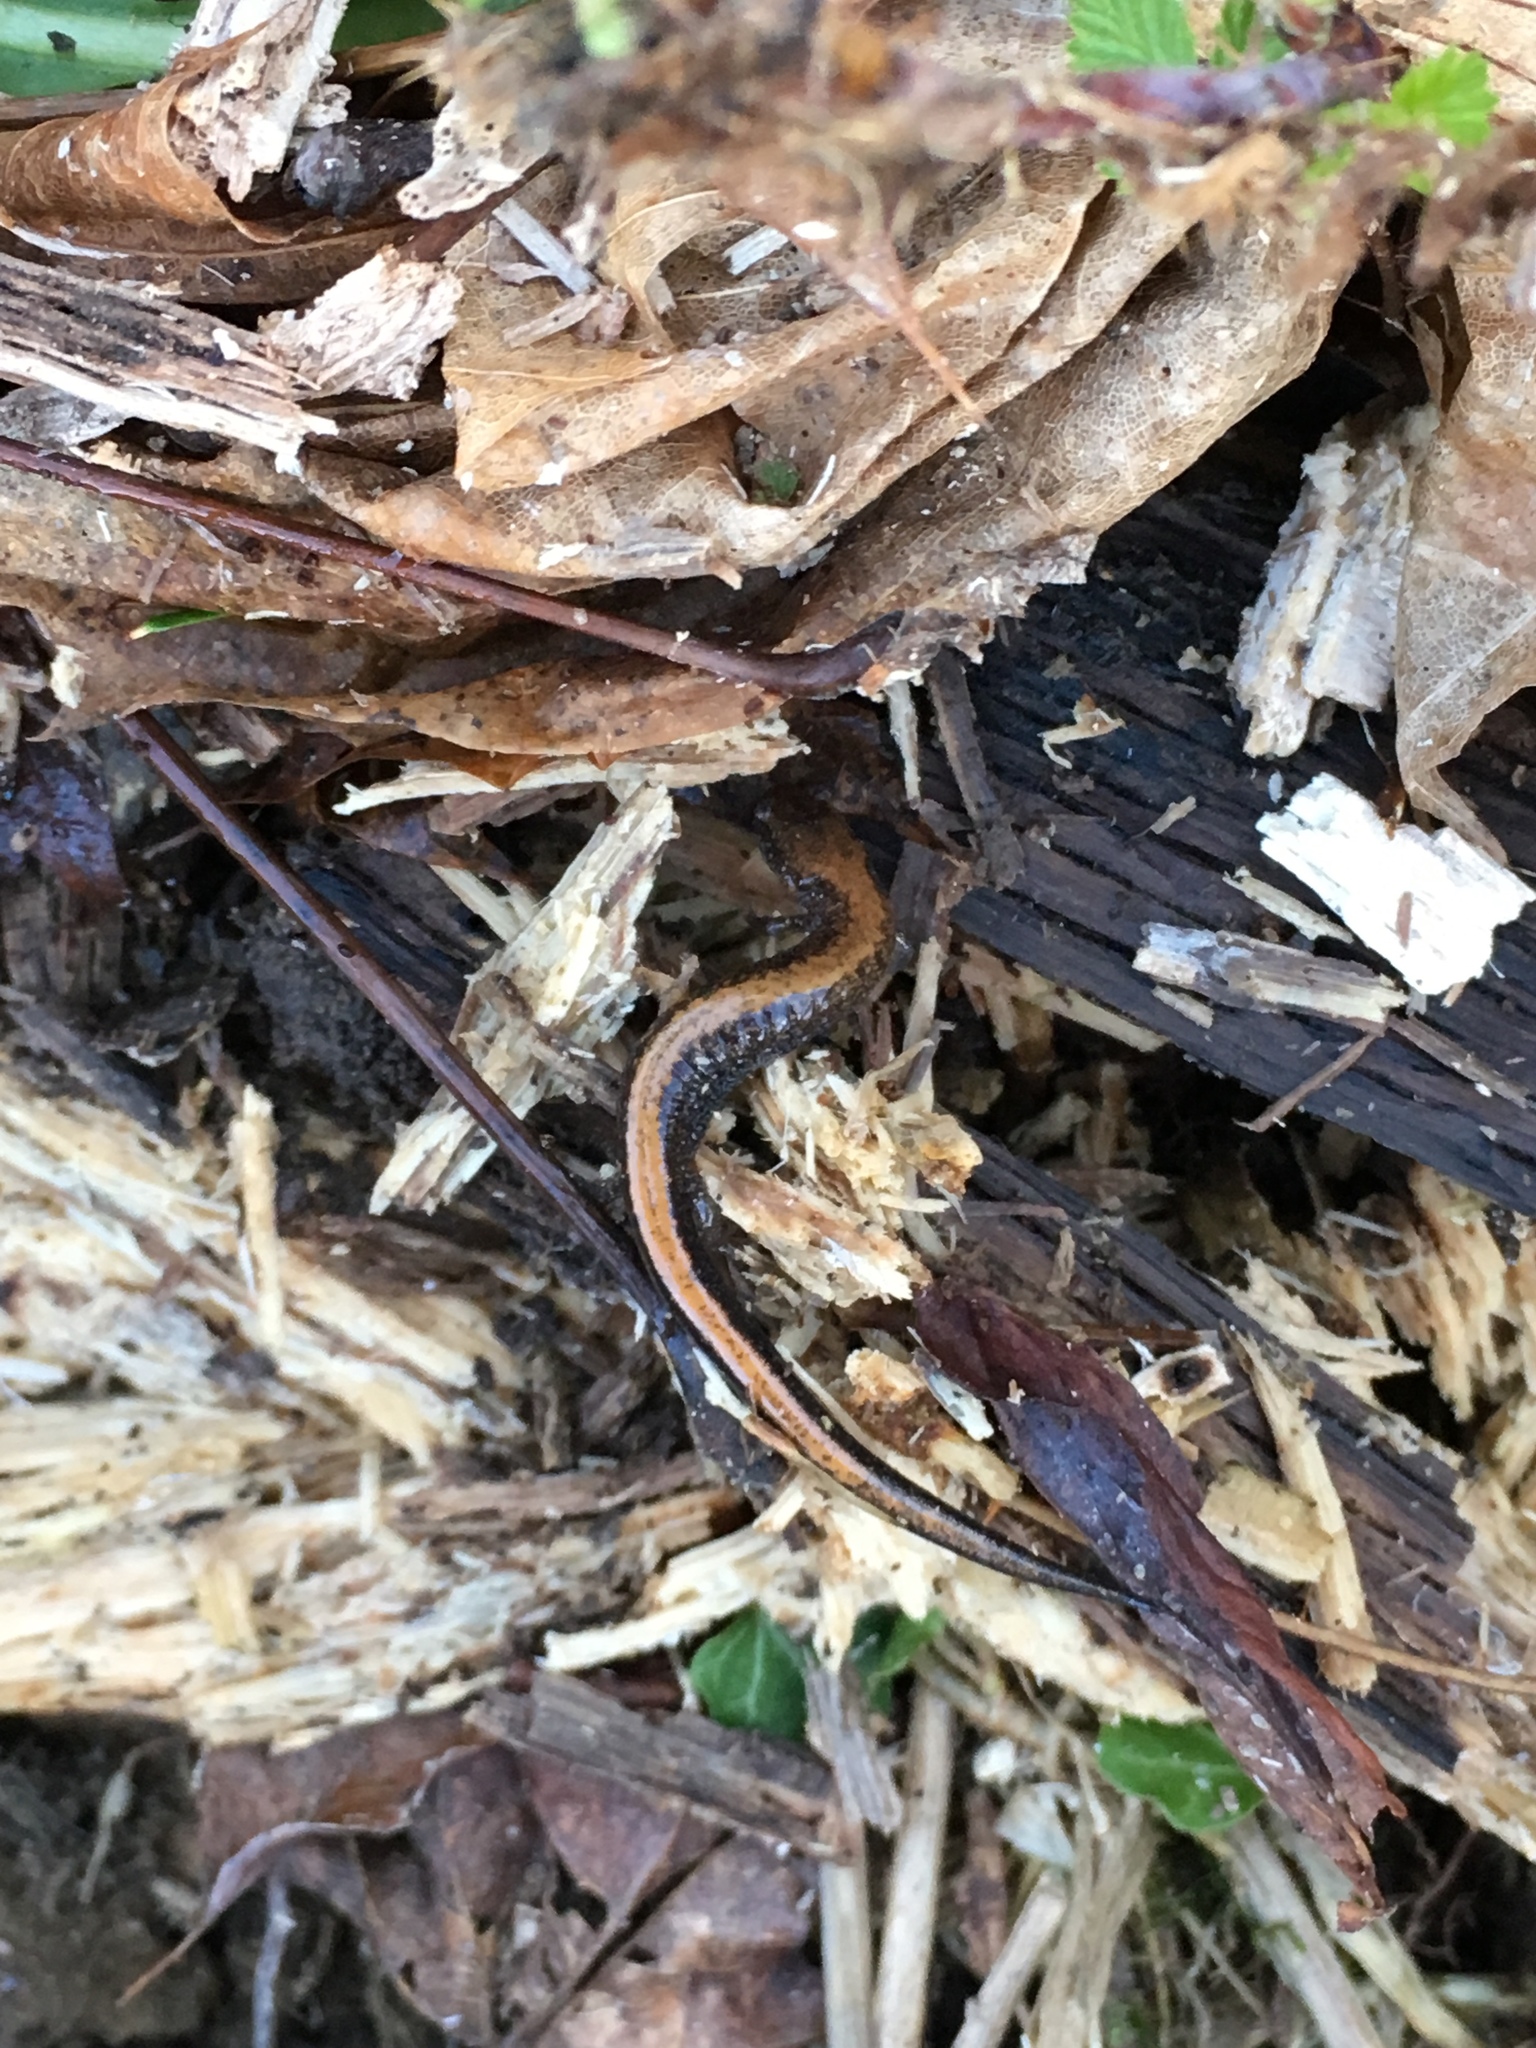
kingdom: Animalia
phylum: Chordata
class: Amphibia
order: Caudata
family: Plethodontidae
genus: Plethodon
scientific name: Plethodon cinereus
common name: Redback salamander
